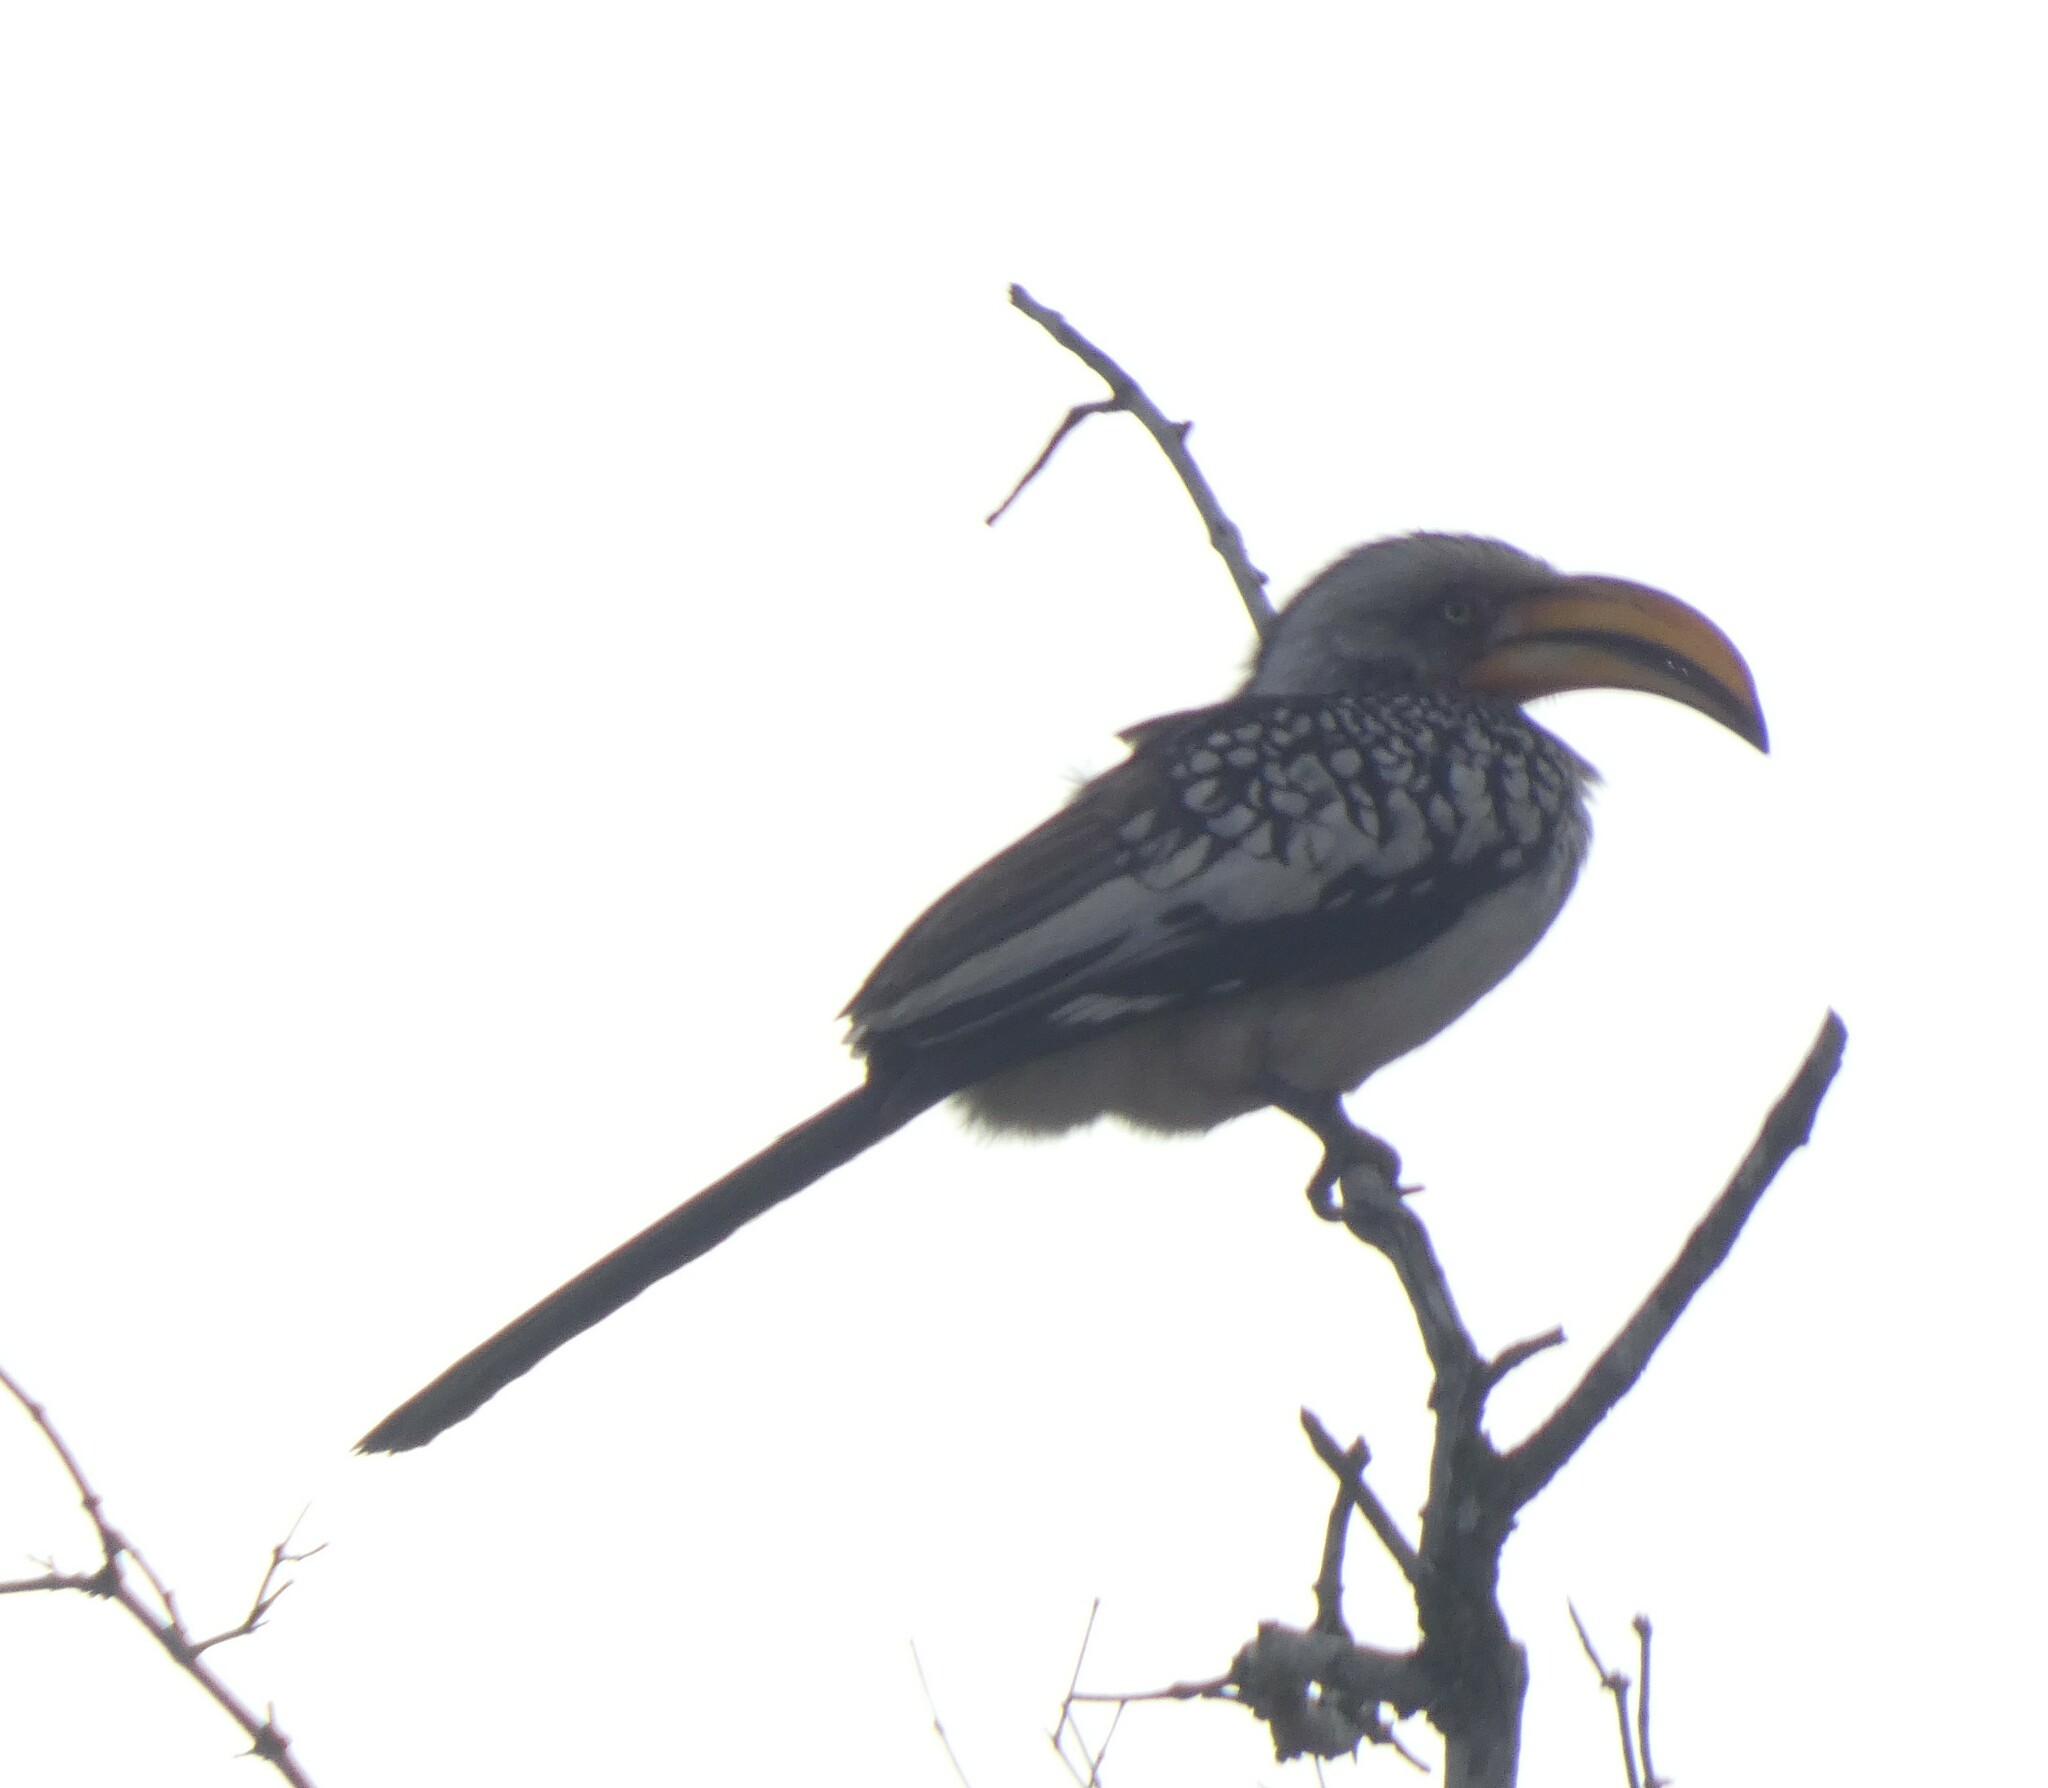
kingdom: Animalia
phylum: Chordata
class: Aves
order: Bucerotiformes
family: Bucerotidae
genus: Tockus
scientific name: Tockus leucomelas
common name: Southern yellow-billed hornbill
